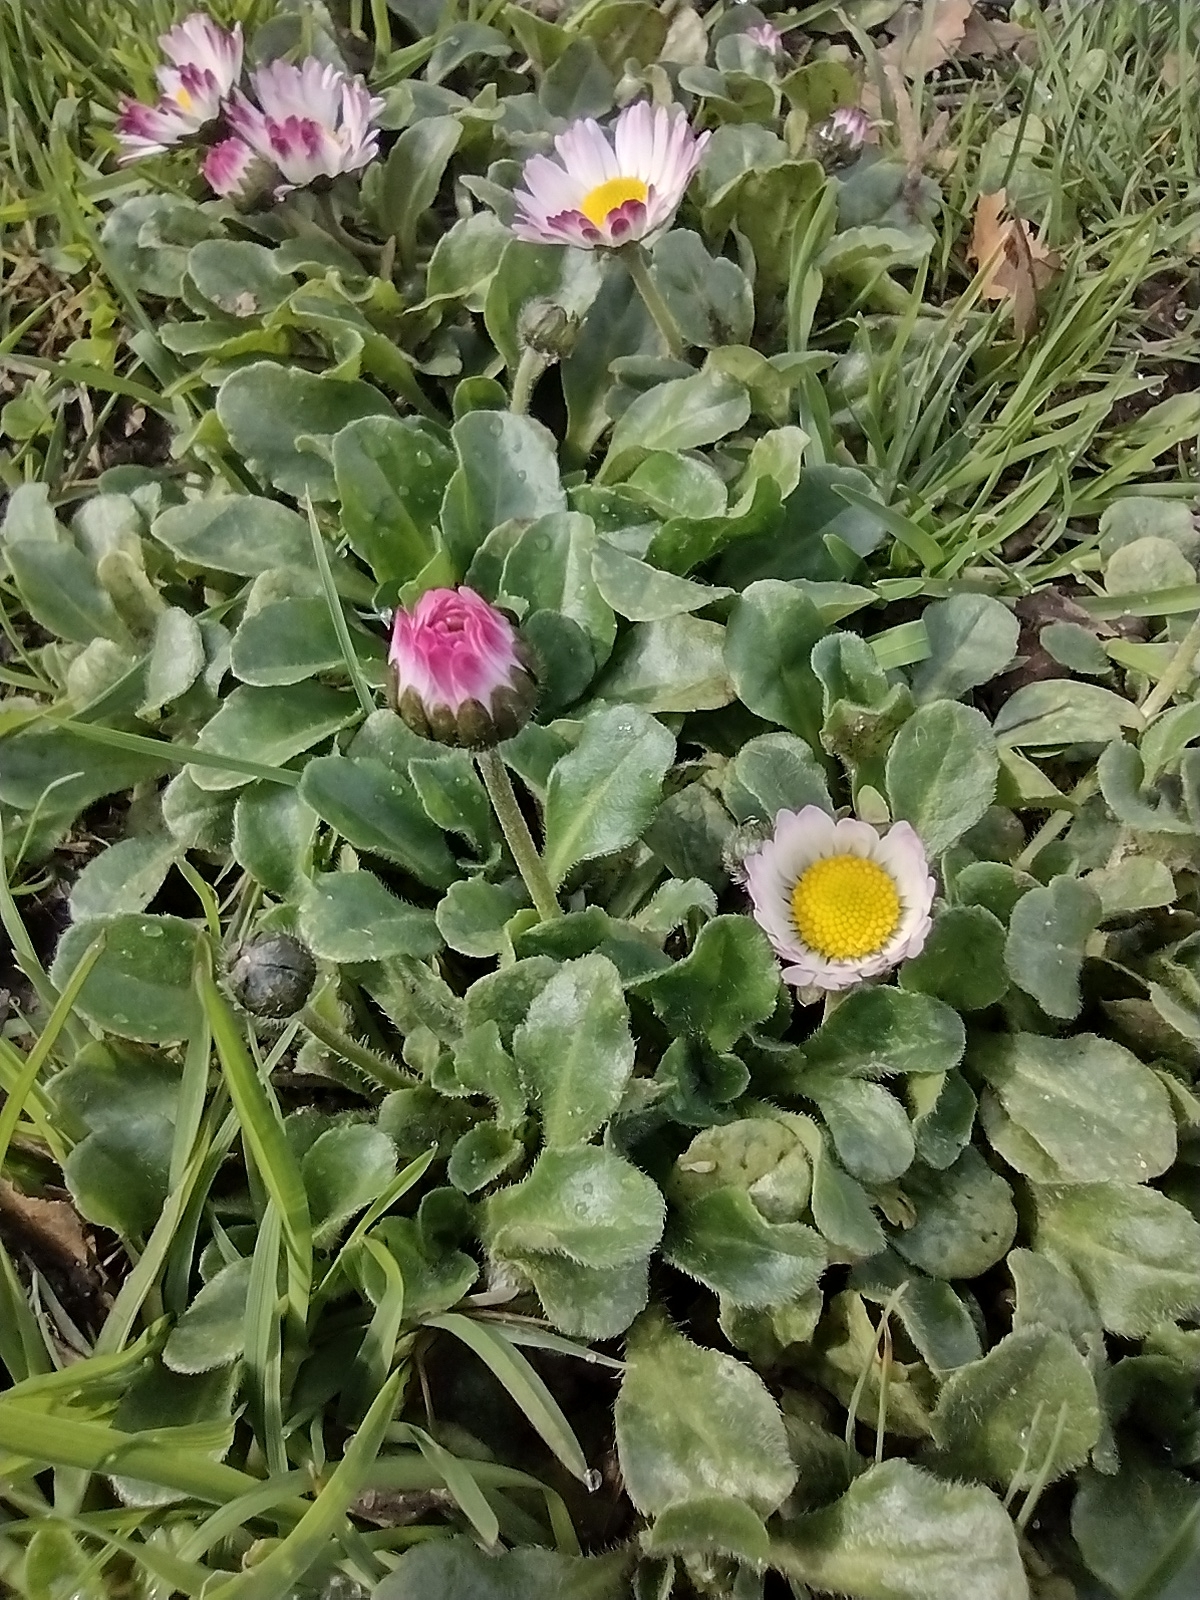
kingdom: Plantae
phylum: Tracheophyta
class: Magnoliopsida
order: Asterales
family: Asteraceae
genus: Bellis
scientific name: Bellis perennis
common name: Lawndaisy
